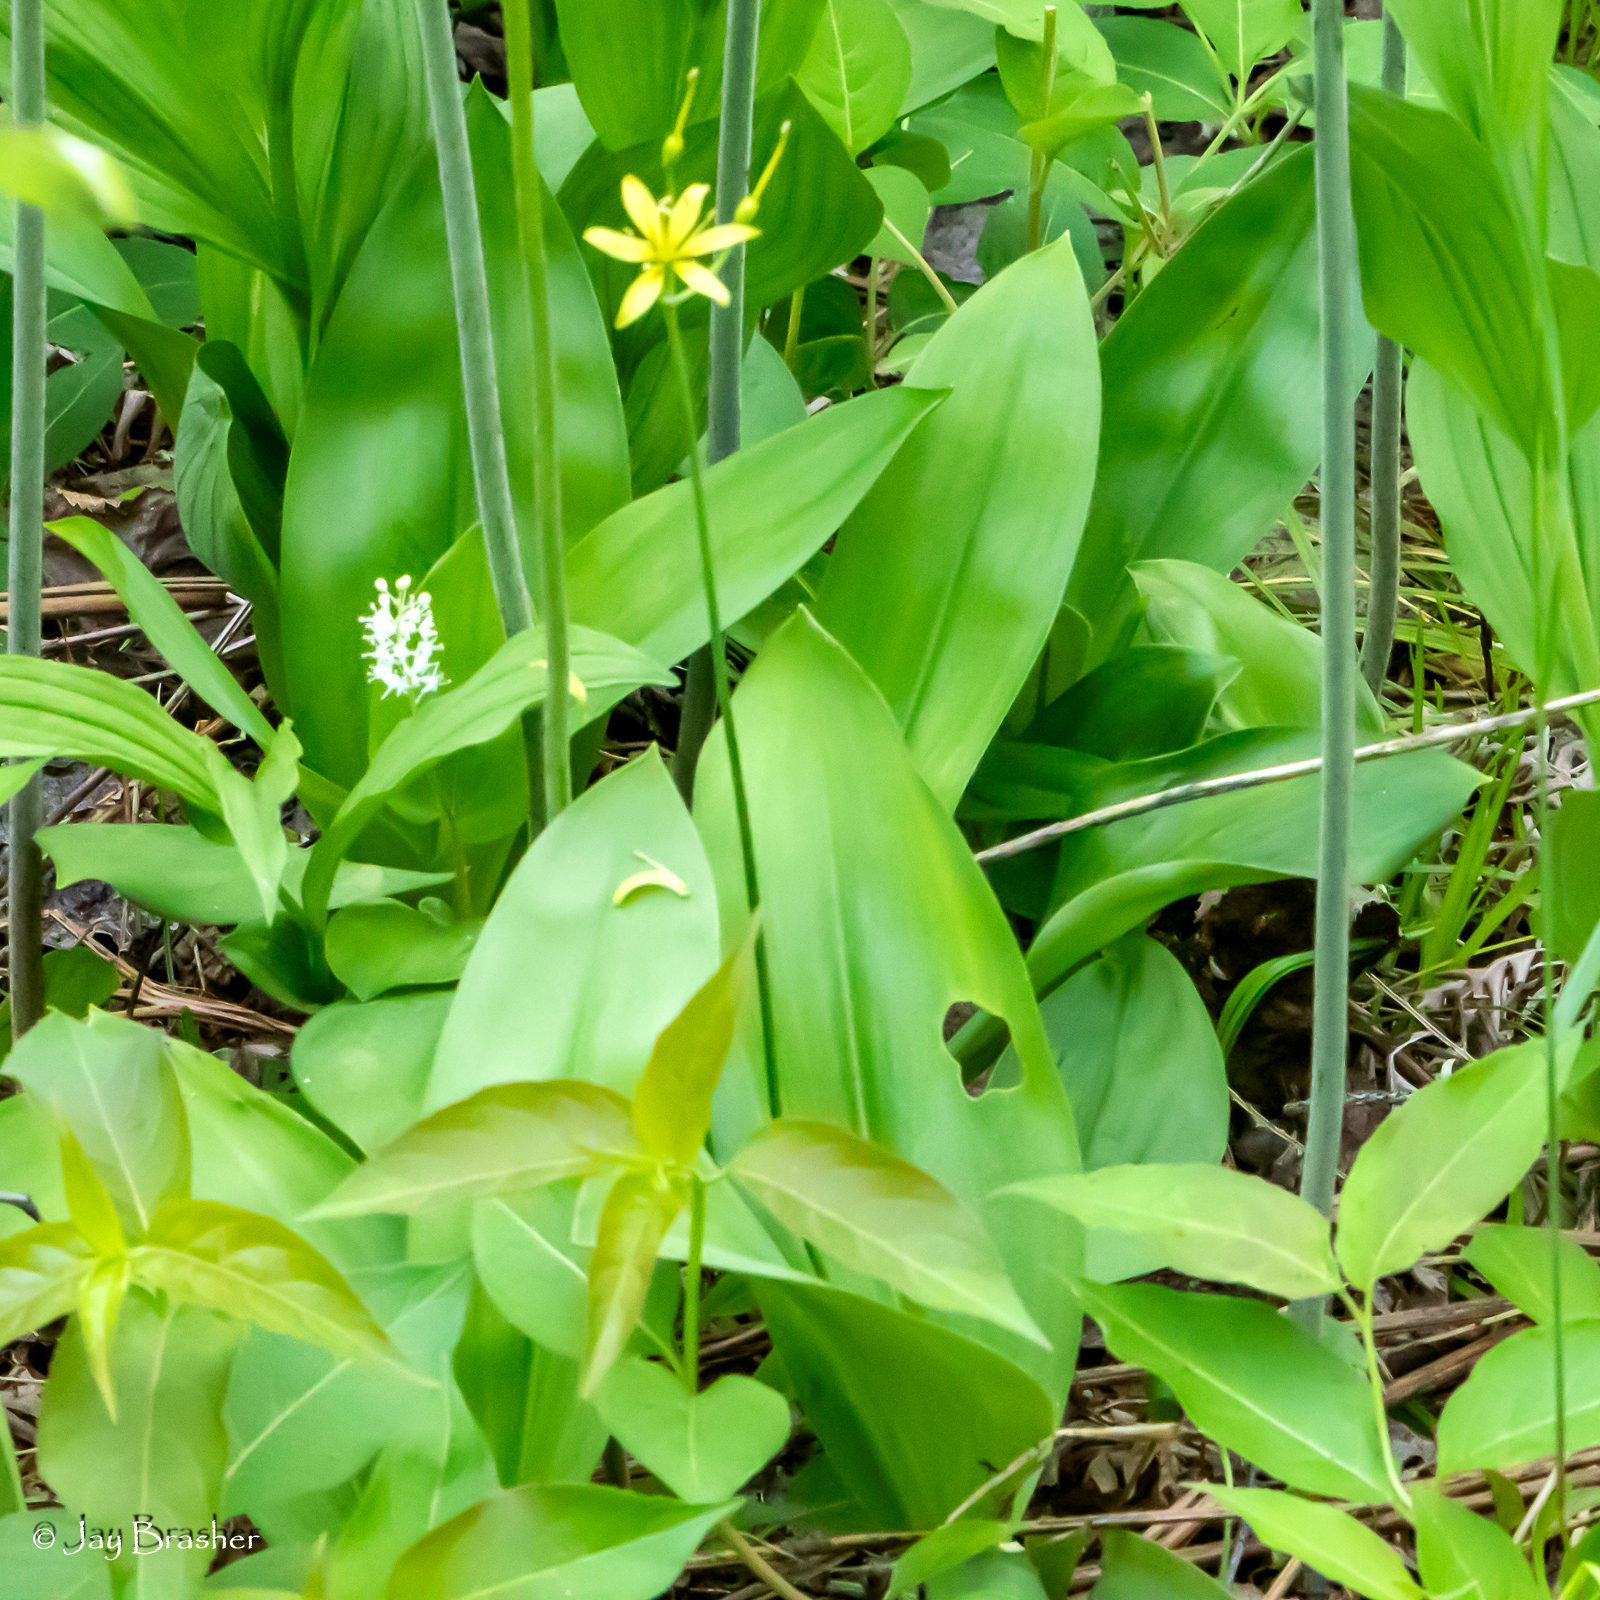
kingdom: Plantae
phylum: Tracheophyta
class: Liliopsida
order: Liliales
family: Liliaceae
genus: Clintonia
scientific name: Clintonia borealis
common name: Yellow clintonia
